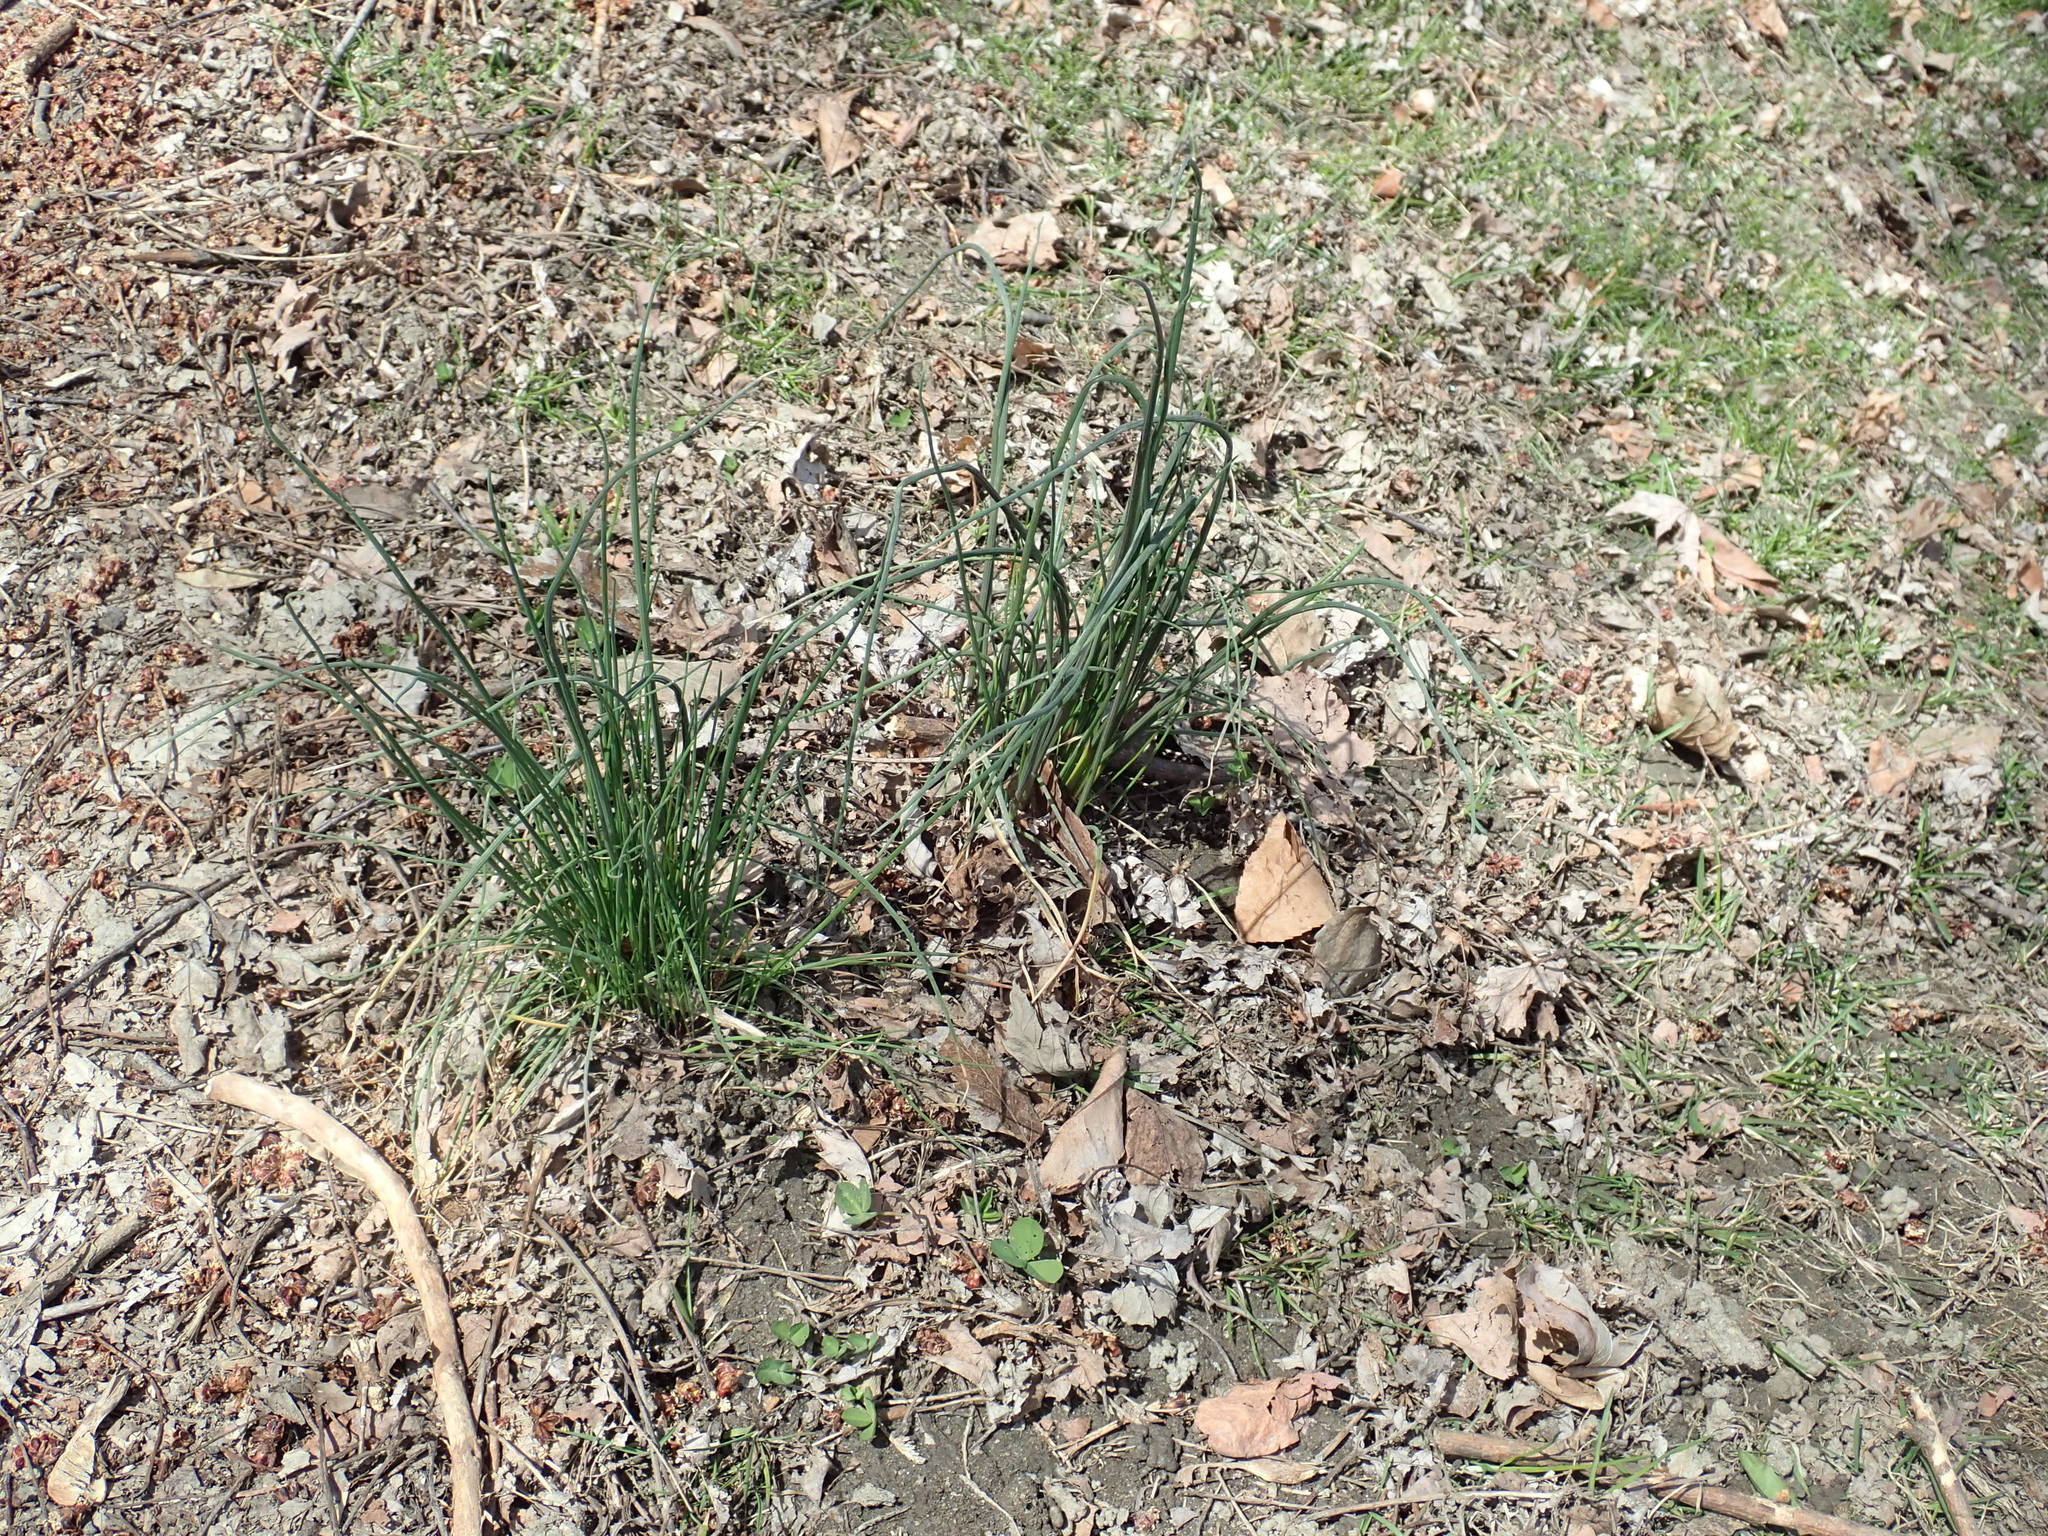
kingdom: Plantae
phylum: Tracheophyta
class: Liliopsida
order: Asparagales
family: Amaryllidaceae
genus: Allium
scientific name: Allium vineale
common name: Crow garlic
